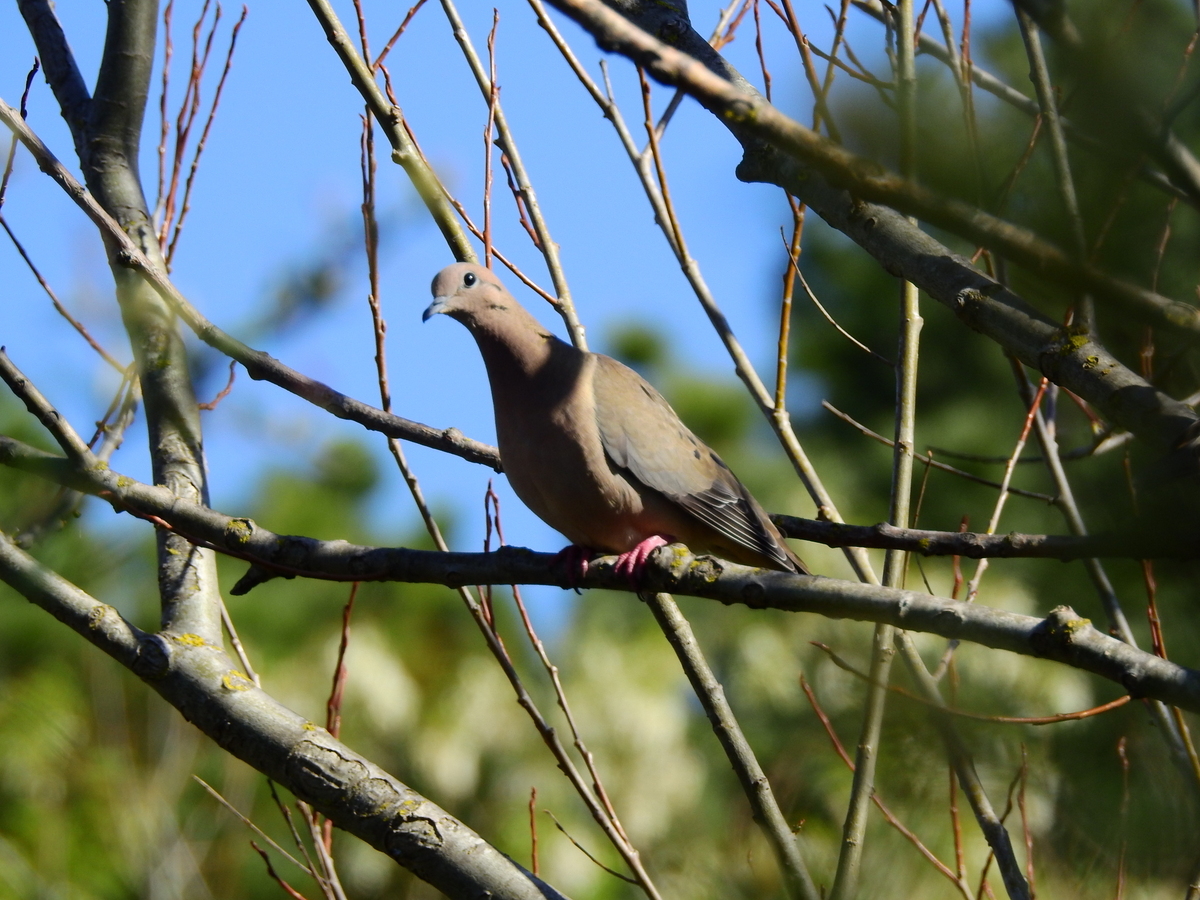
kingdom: Animalia
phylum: Chordata
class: Aves
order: Columbiformes
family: Columbidae
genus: Zenaida
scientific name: Zenaida auriculata
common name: Eared dove
